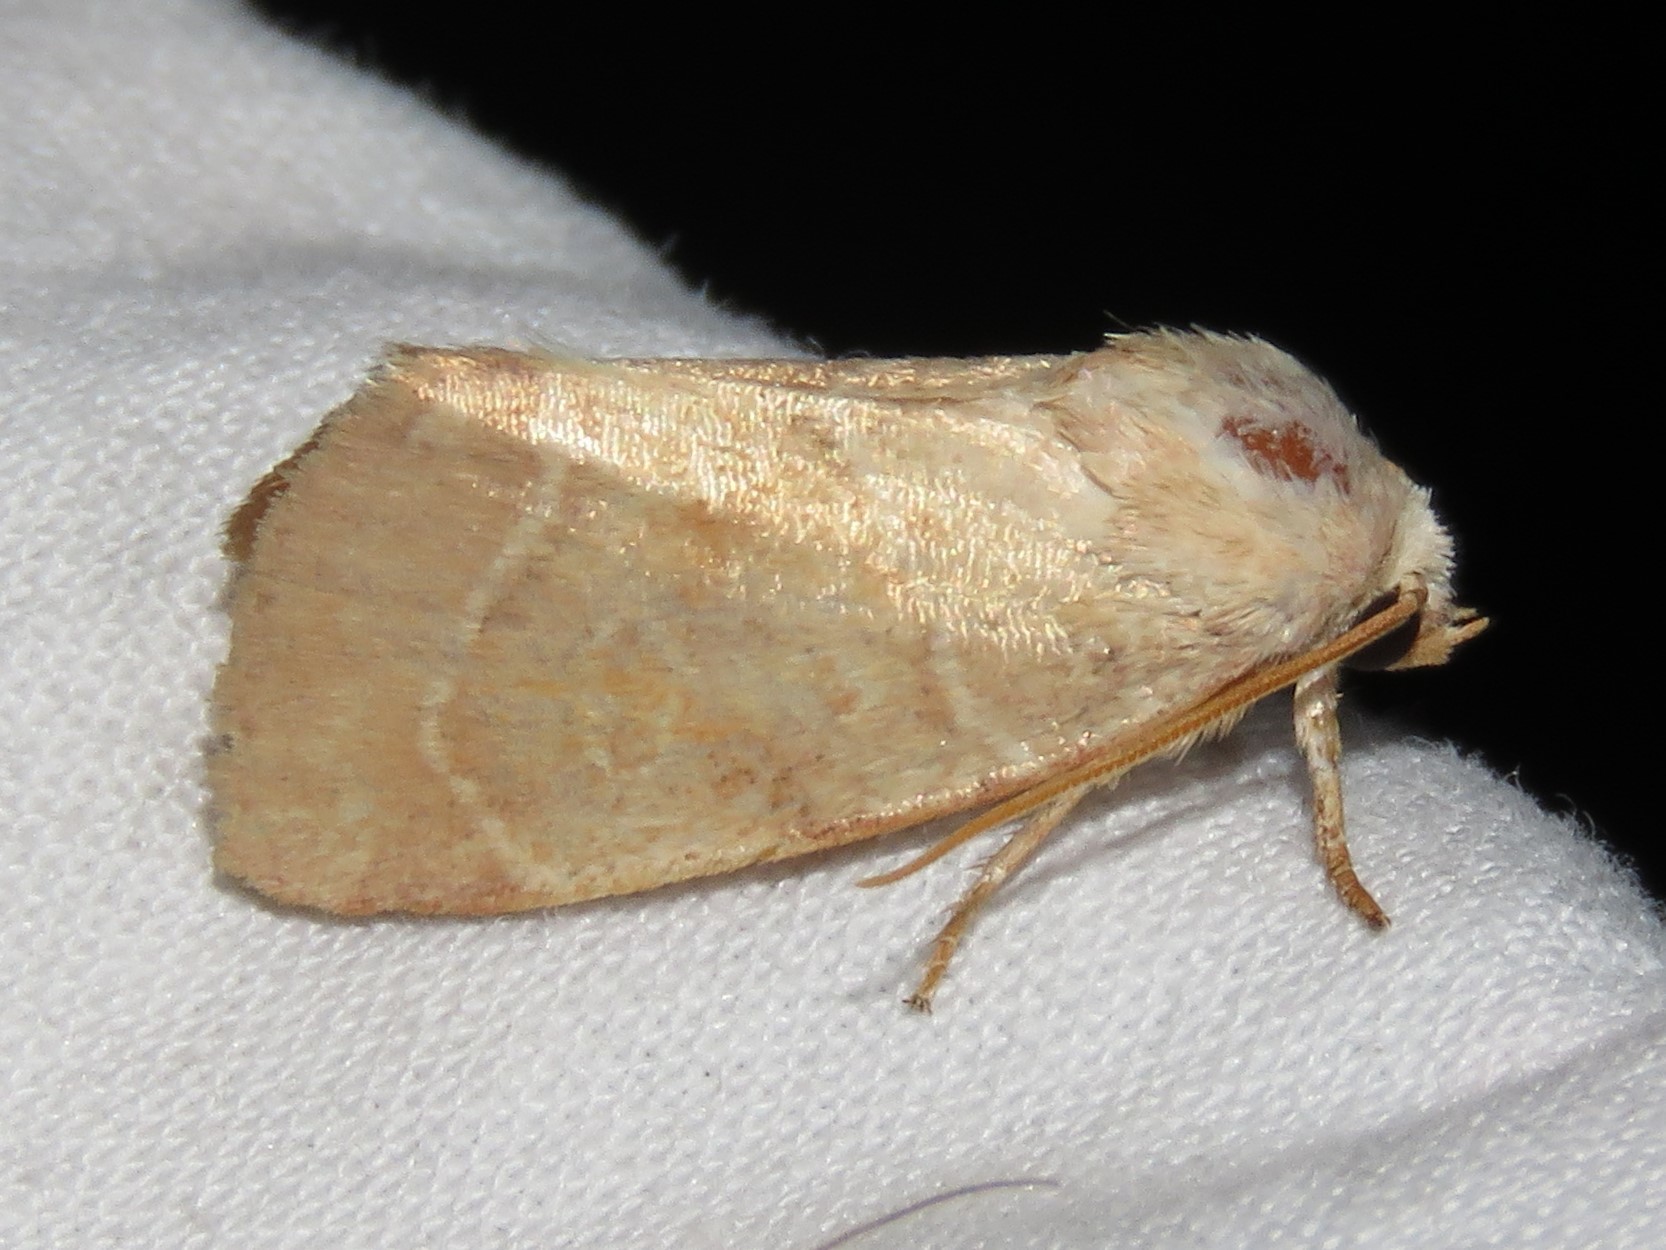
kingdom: Animalia
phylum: Arthropoda
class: Insecta
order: Lepidoptera
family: Noctuidae
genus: Cosmia
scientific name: Cosmia calami
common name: American dun-bar moth
